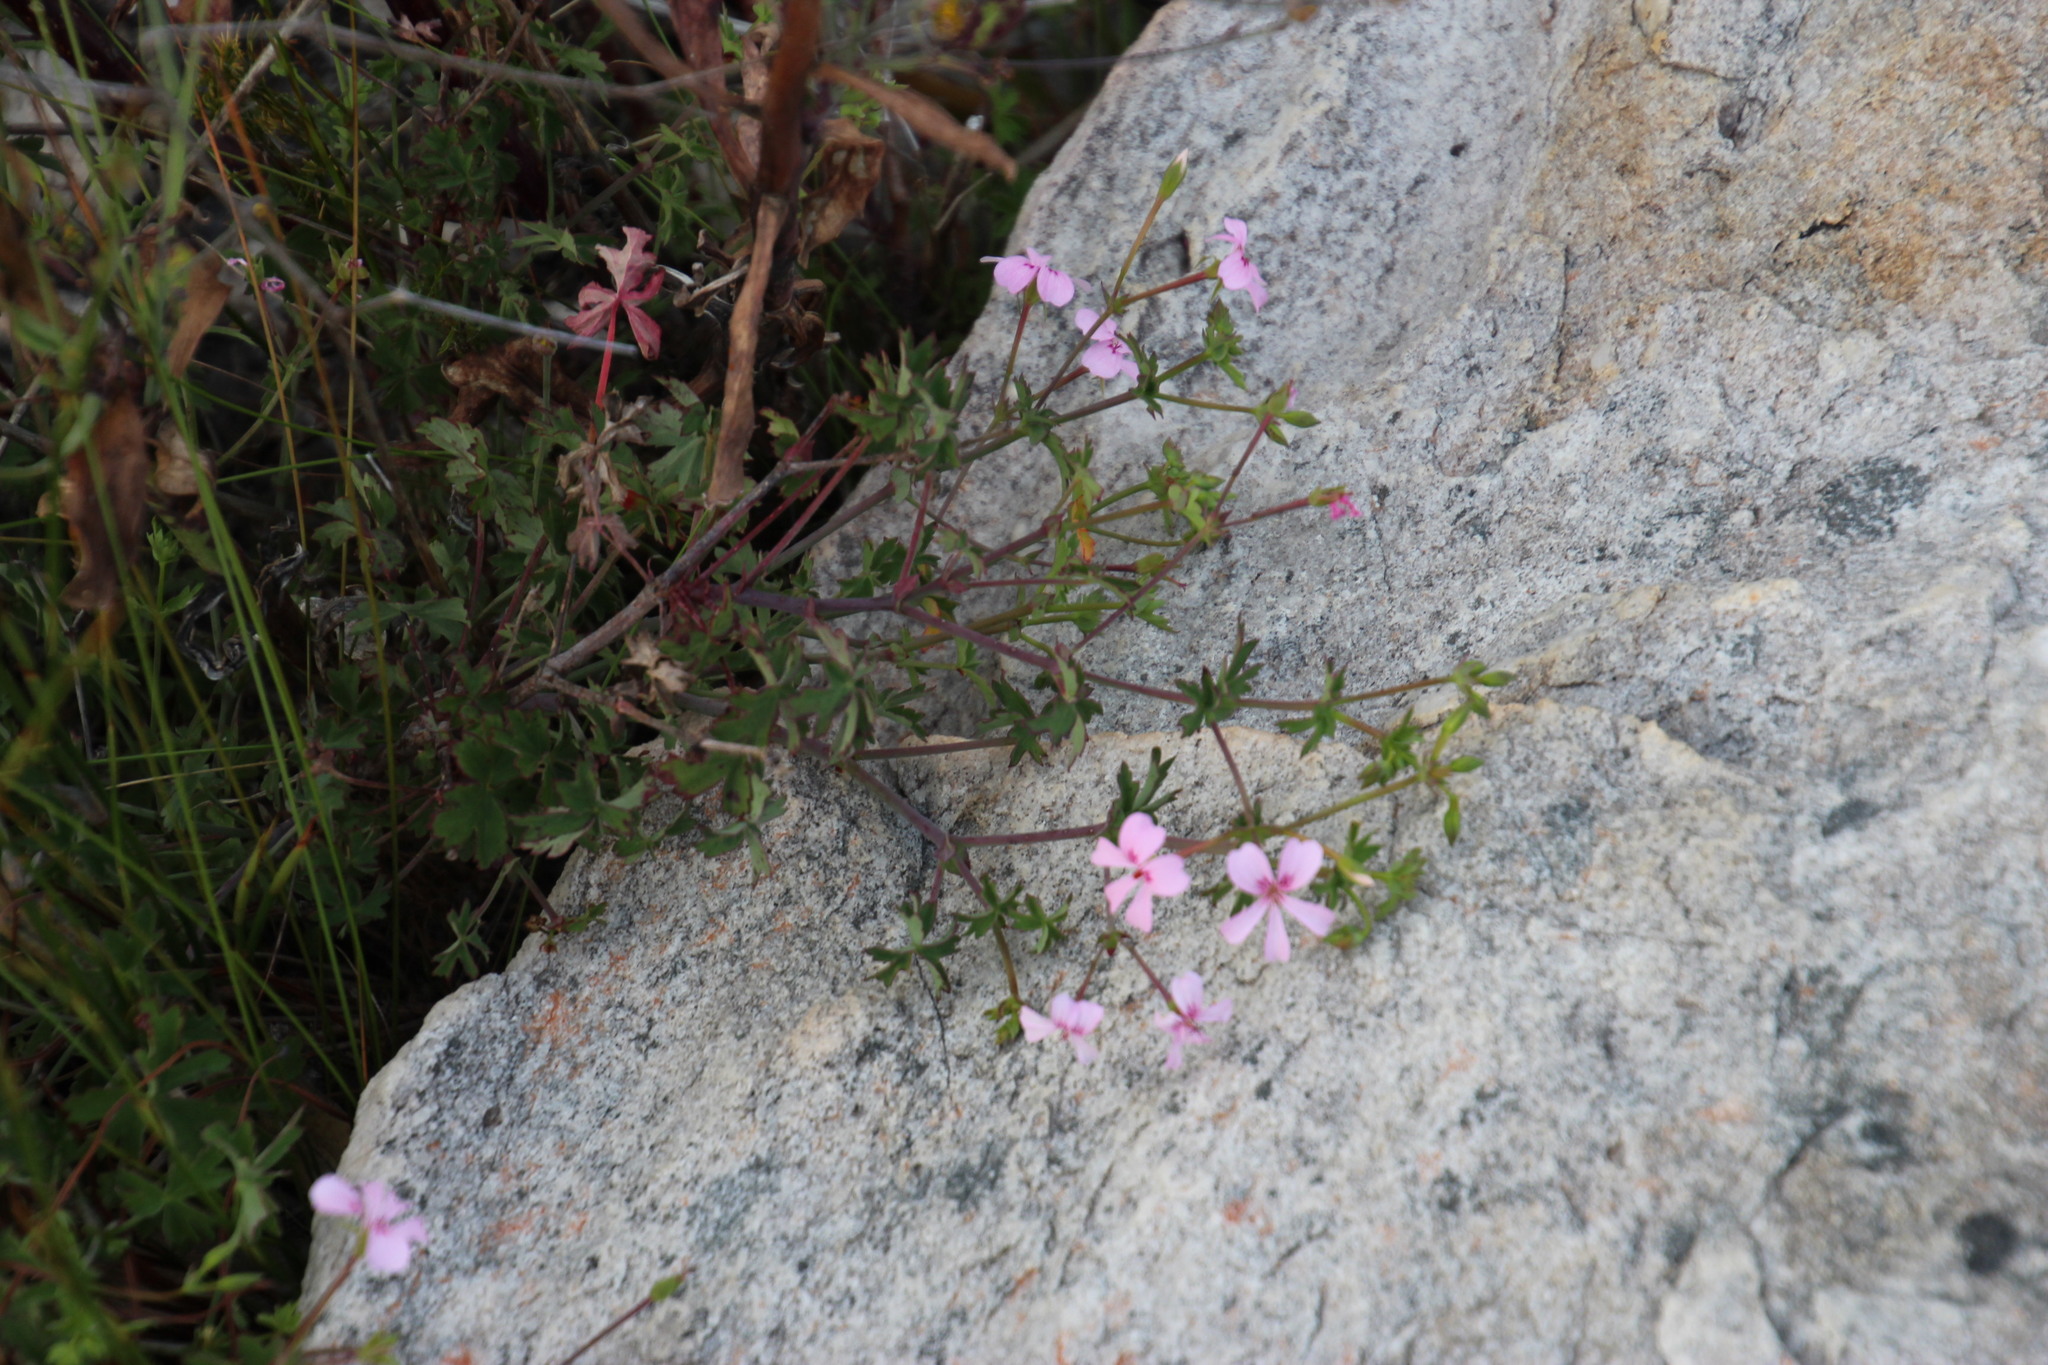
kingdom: Plantae
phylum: Tracheophyta
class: Magnoliopsida
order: Geraniales
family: Geraniaceae
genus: Pelargonium
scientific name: Pelargonium patulum
